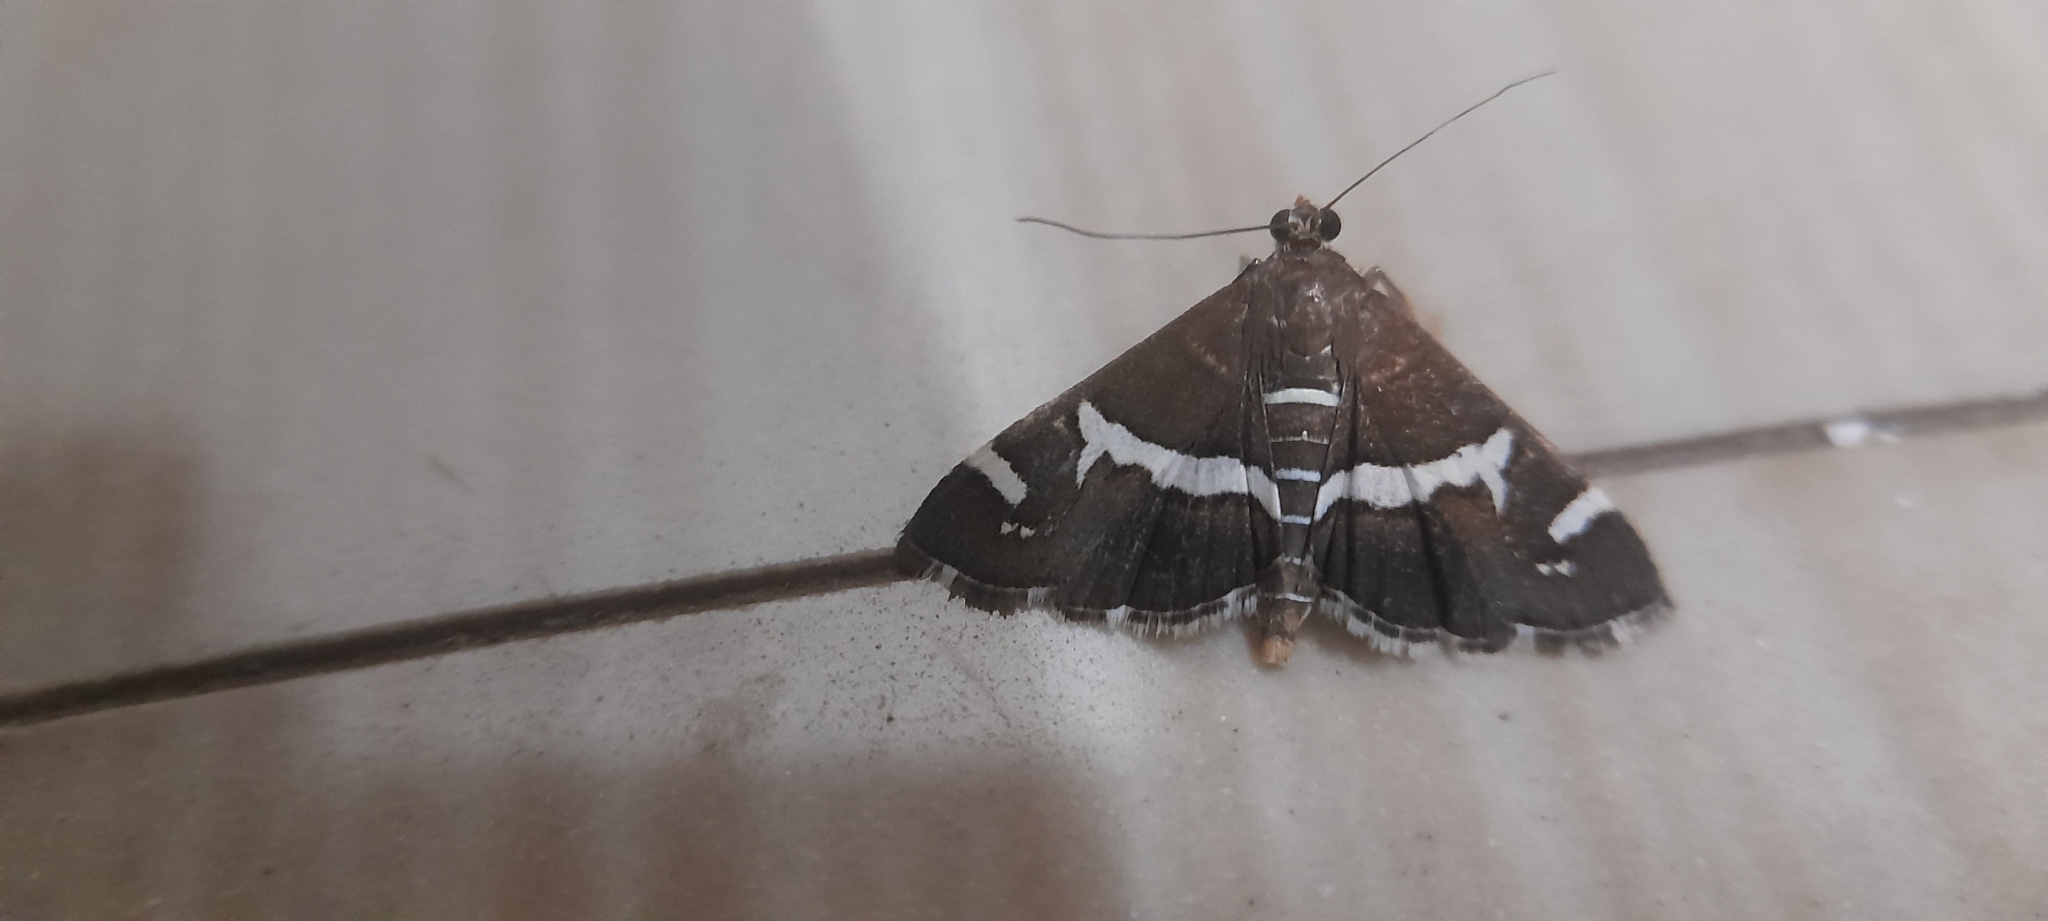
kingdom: Animalia
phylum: Arthropoda
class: Insecta
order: Lepidoptera
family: Crambidae
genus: Spoladea
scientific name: Spoladea recurvalis
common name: Beet webworm moth
